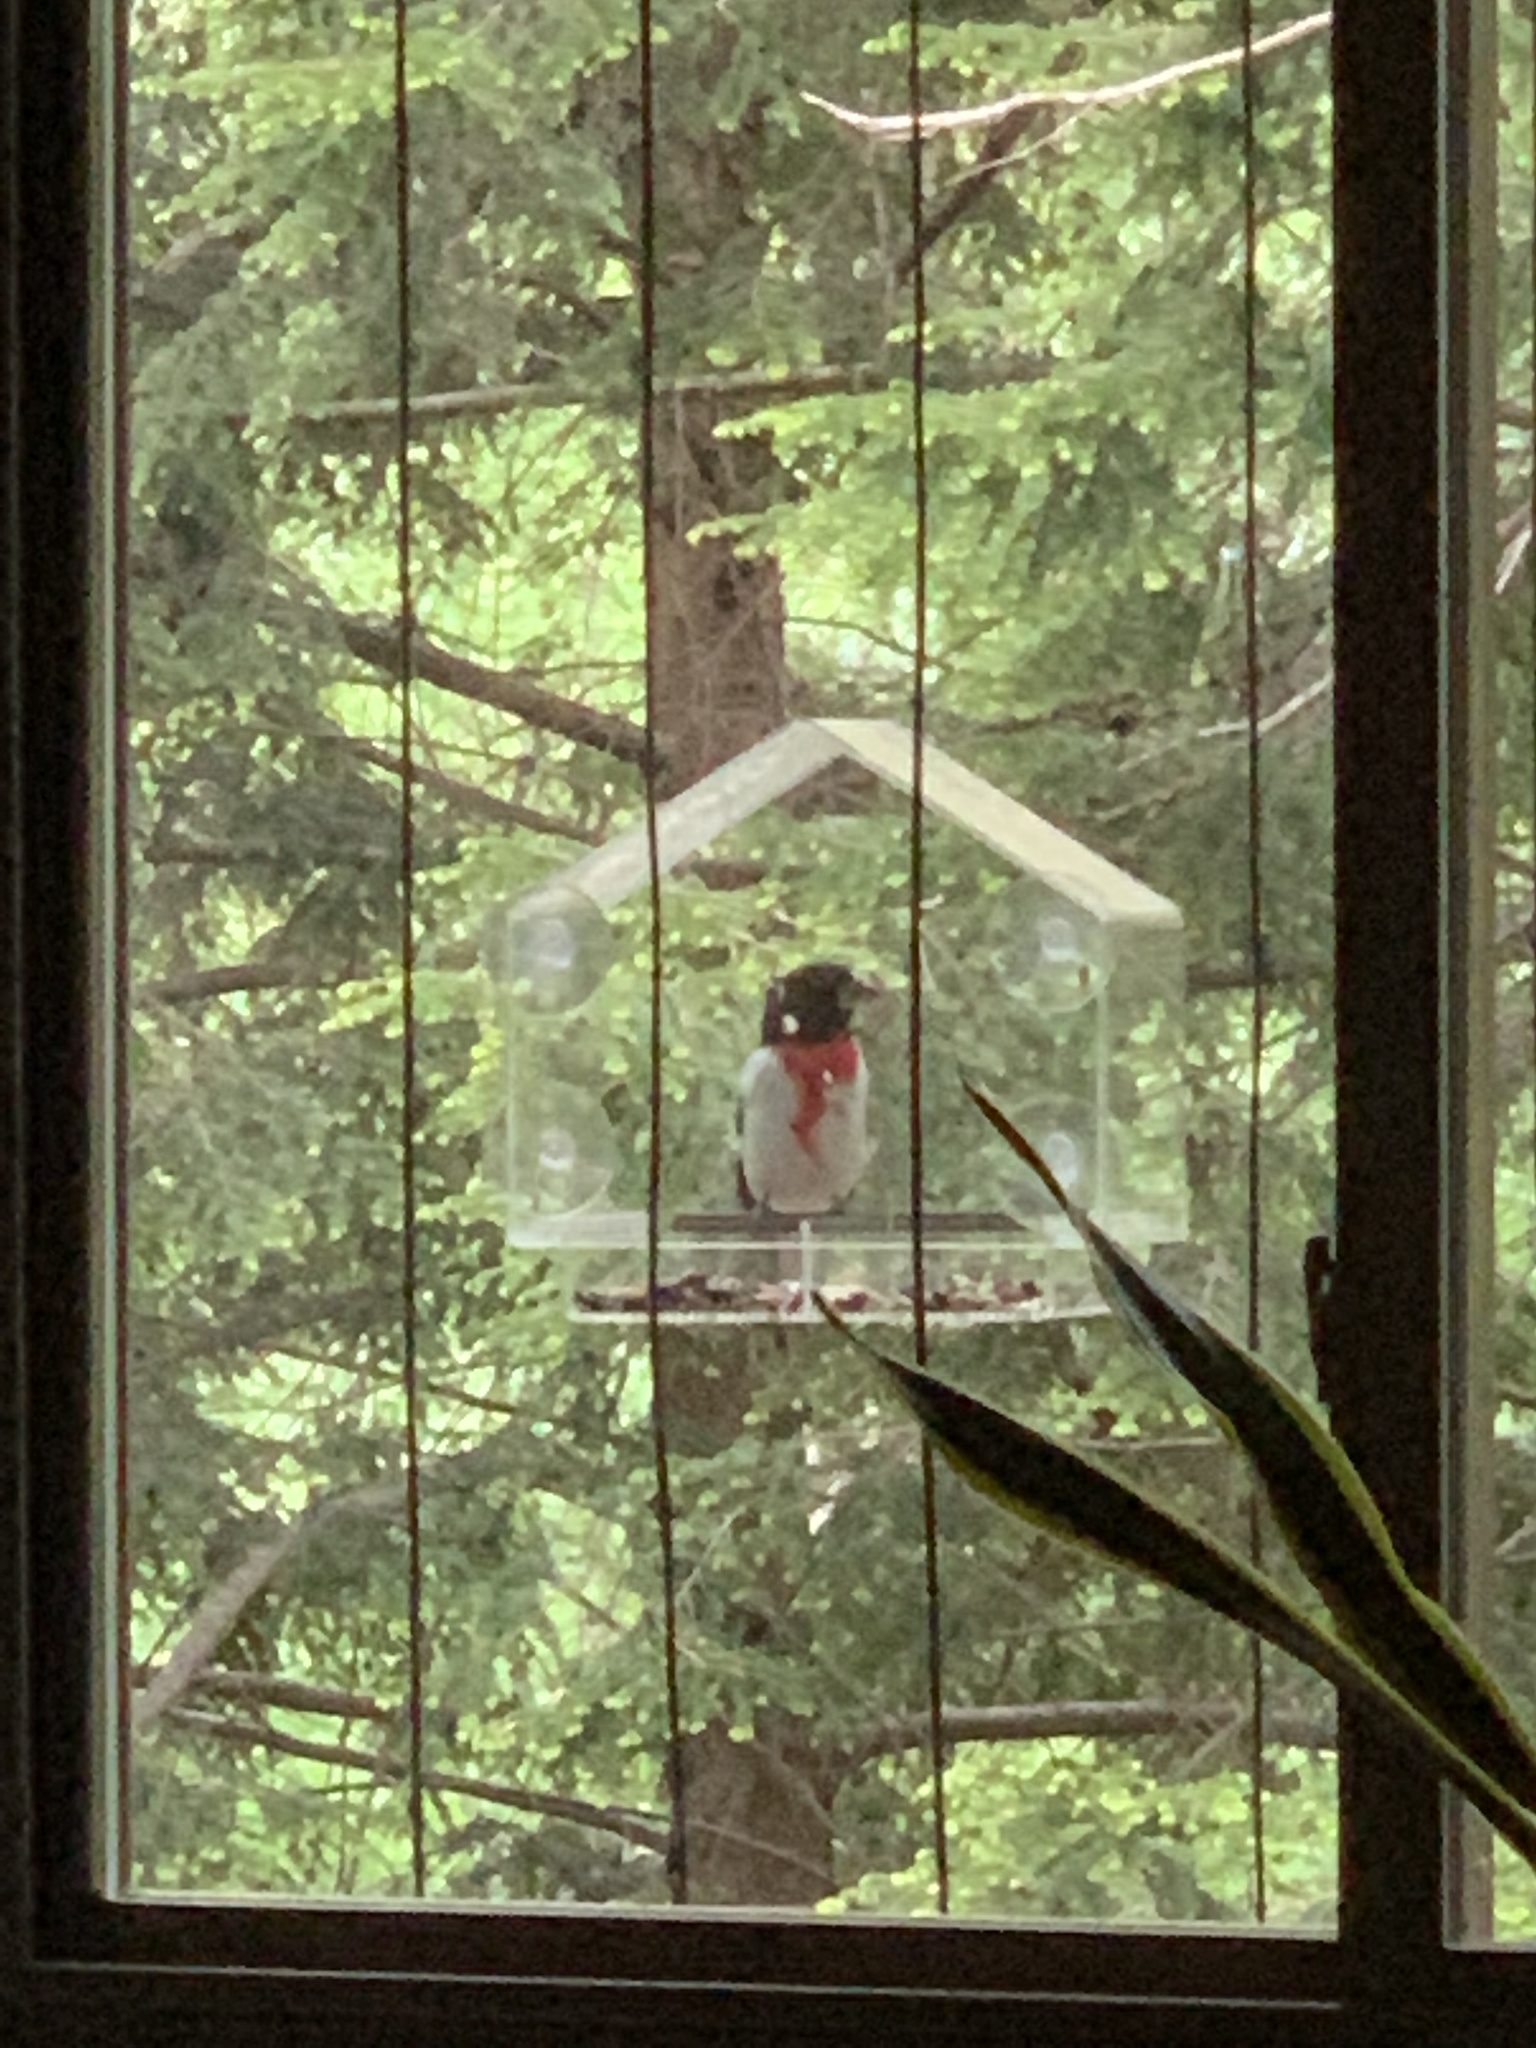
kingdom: Animalia
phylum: Chordata
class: Aves
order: Passeriformes
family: Cardinalidae
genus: Pheucticus
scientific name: Pheucticus ludovicianus
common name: Rose-breasted grosbeak
